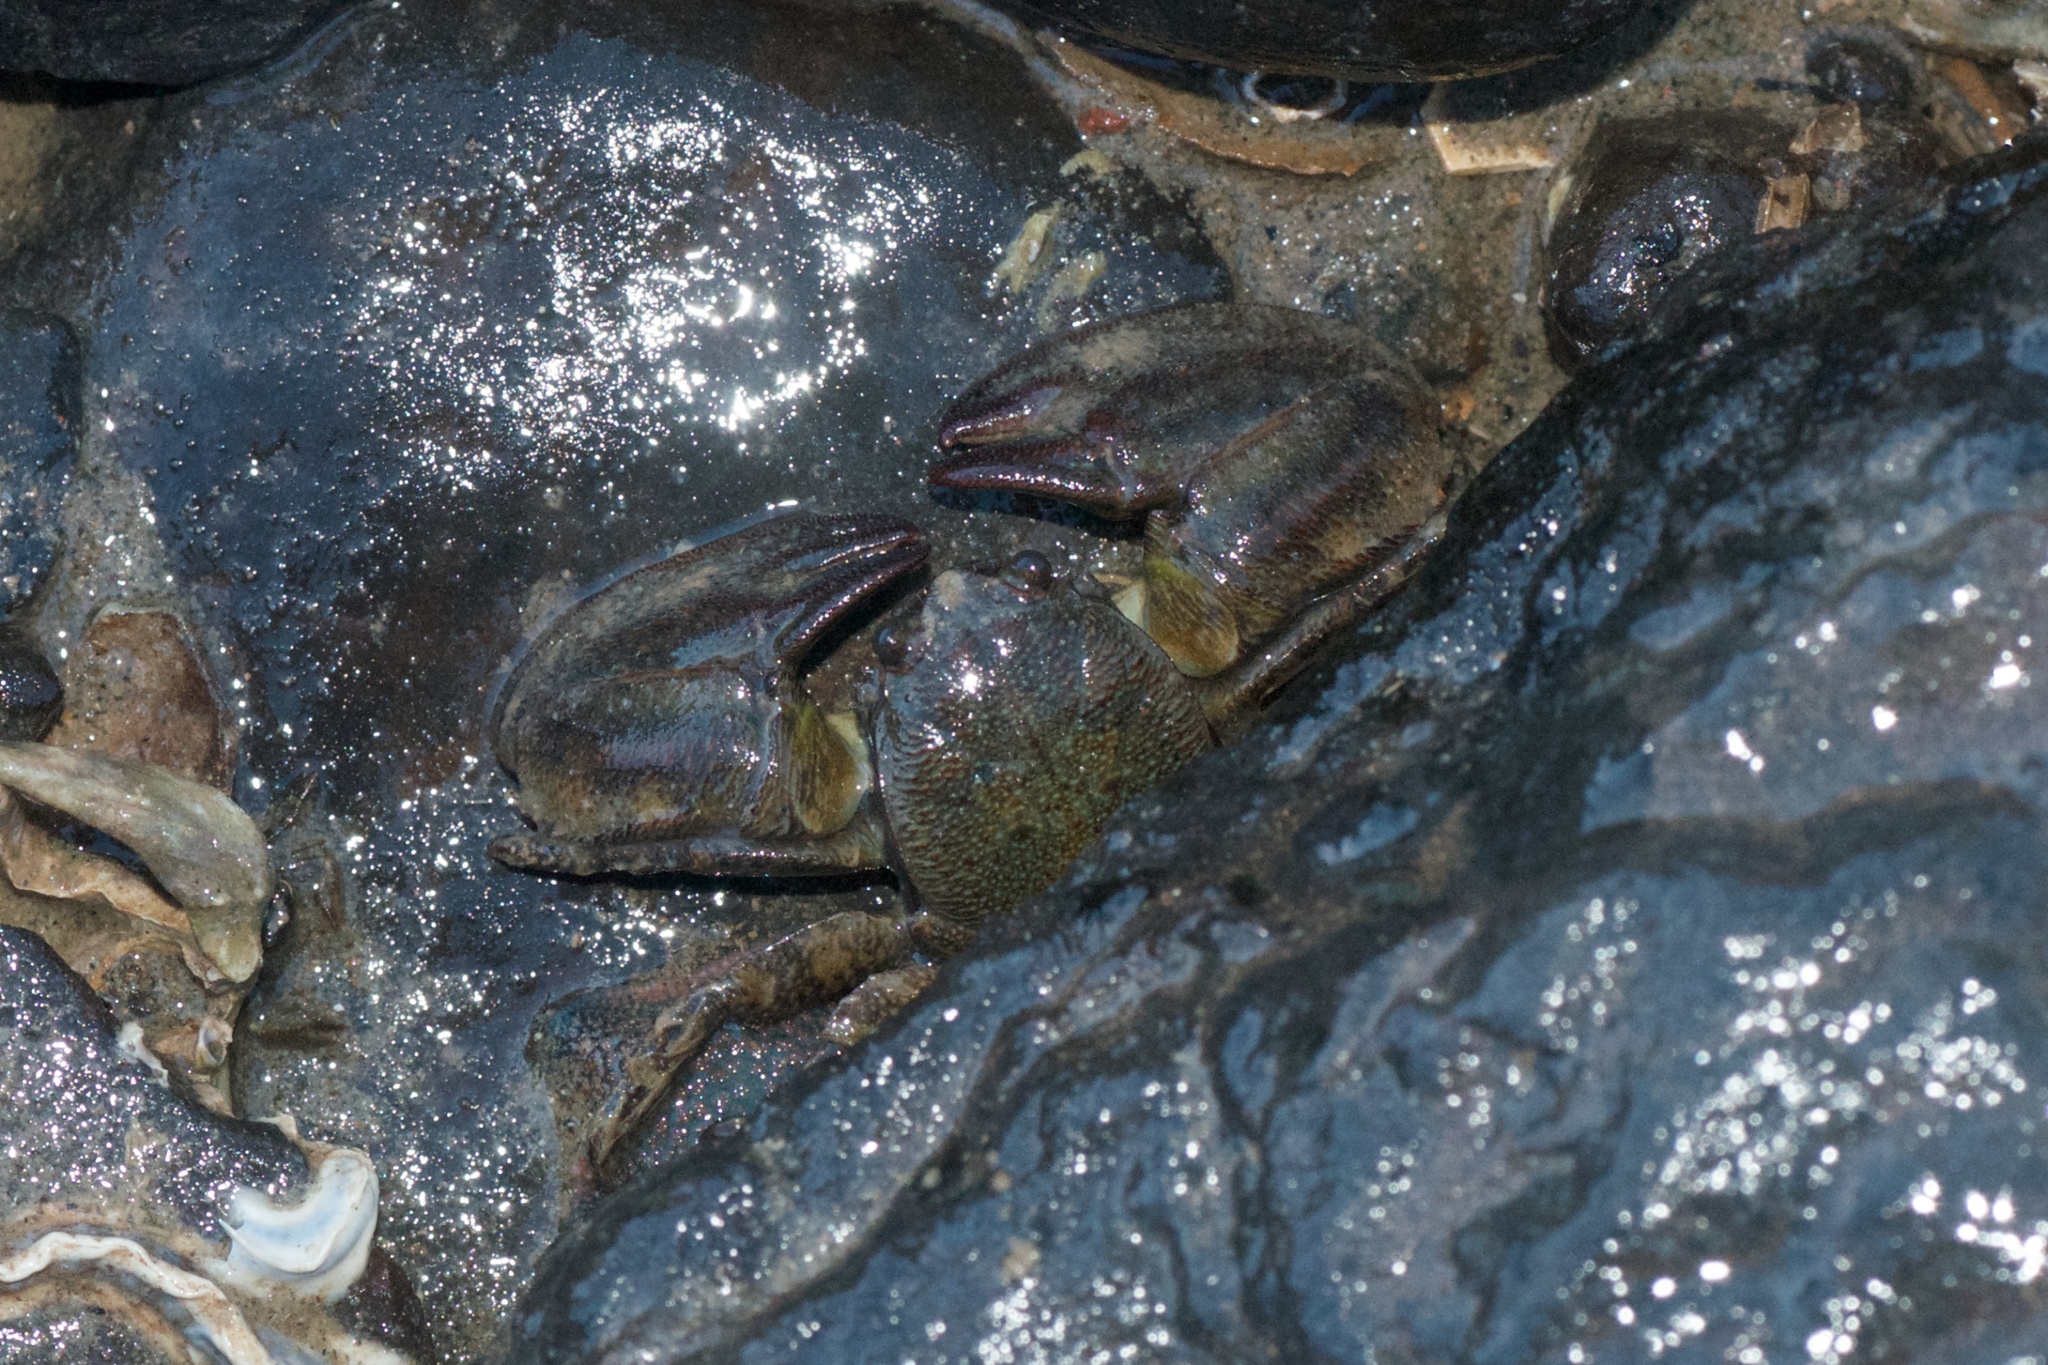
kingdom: Animalia
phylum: Arthropoda
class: Malacostraca
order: Decapoda
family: Porcellanidae
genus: Petrolisthes
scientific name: Petrolisthes elongatus
